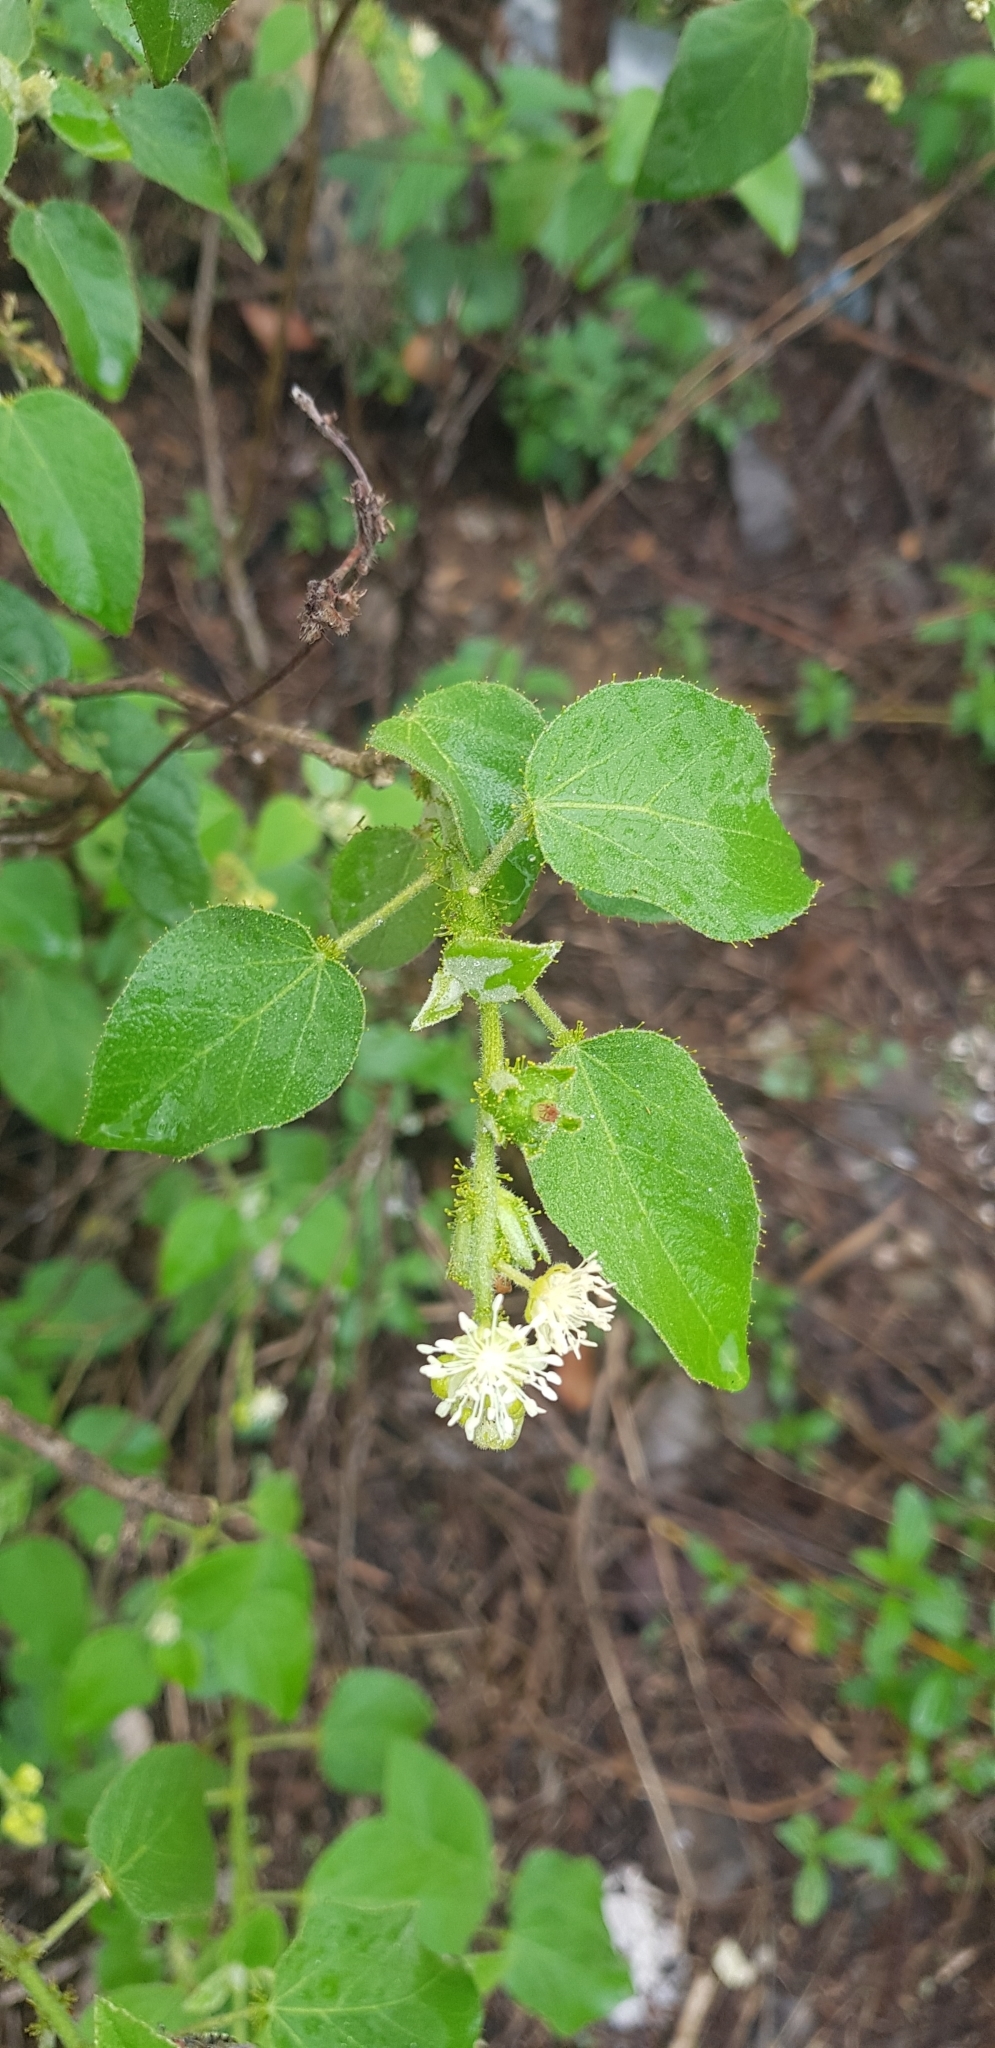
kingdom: Plantae
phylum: Tracheophyta
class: Magnoliopsida
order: Malpighiales
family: Euphorbiaceae
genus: Croton
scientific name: Croton ciliatoglandulifer
